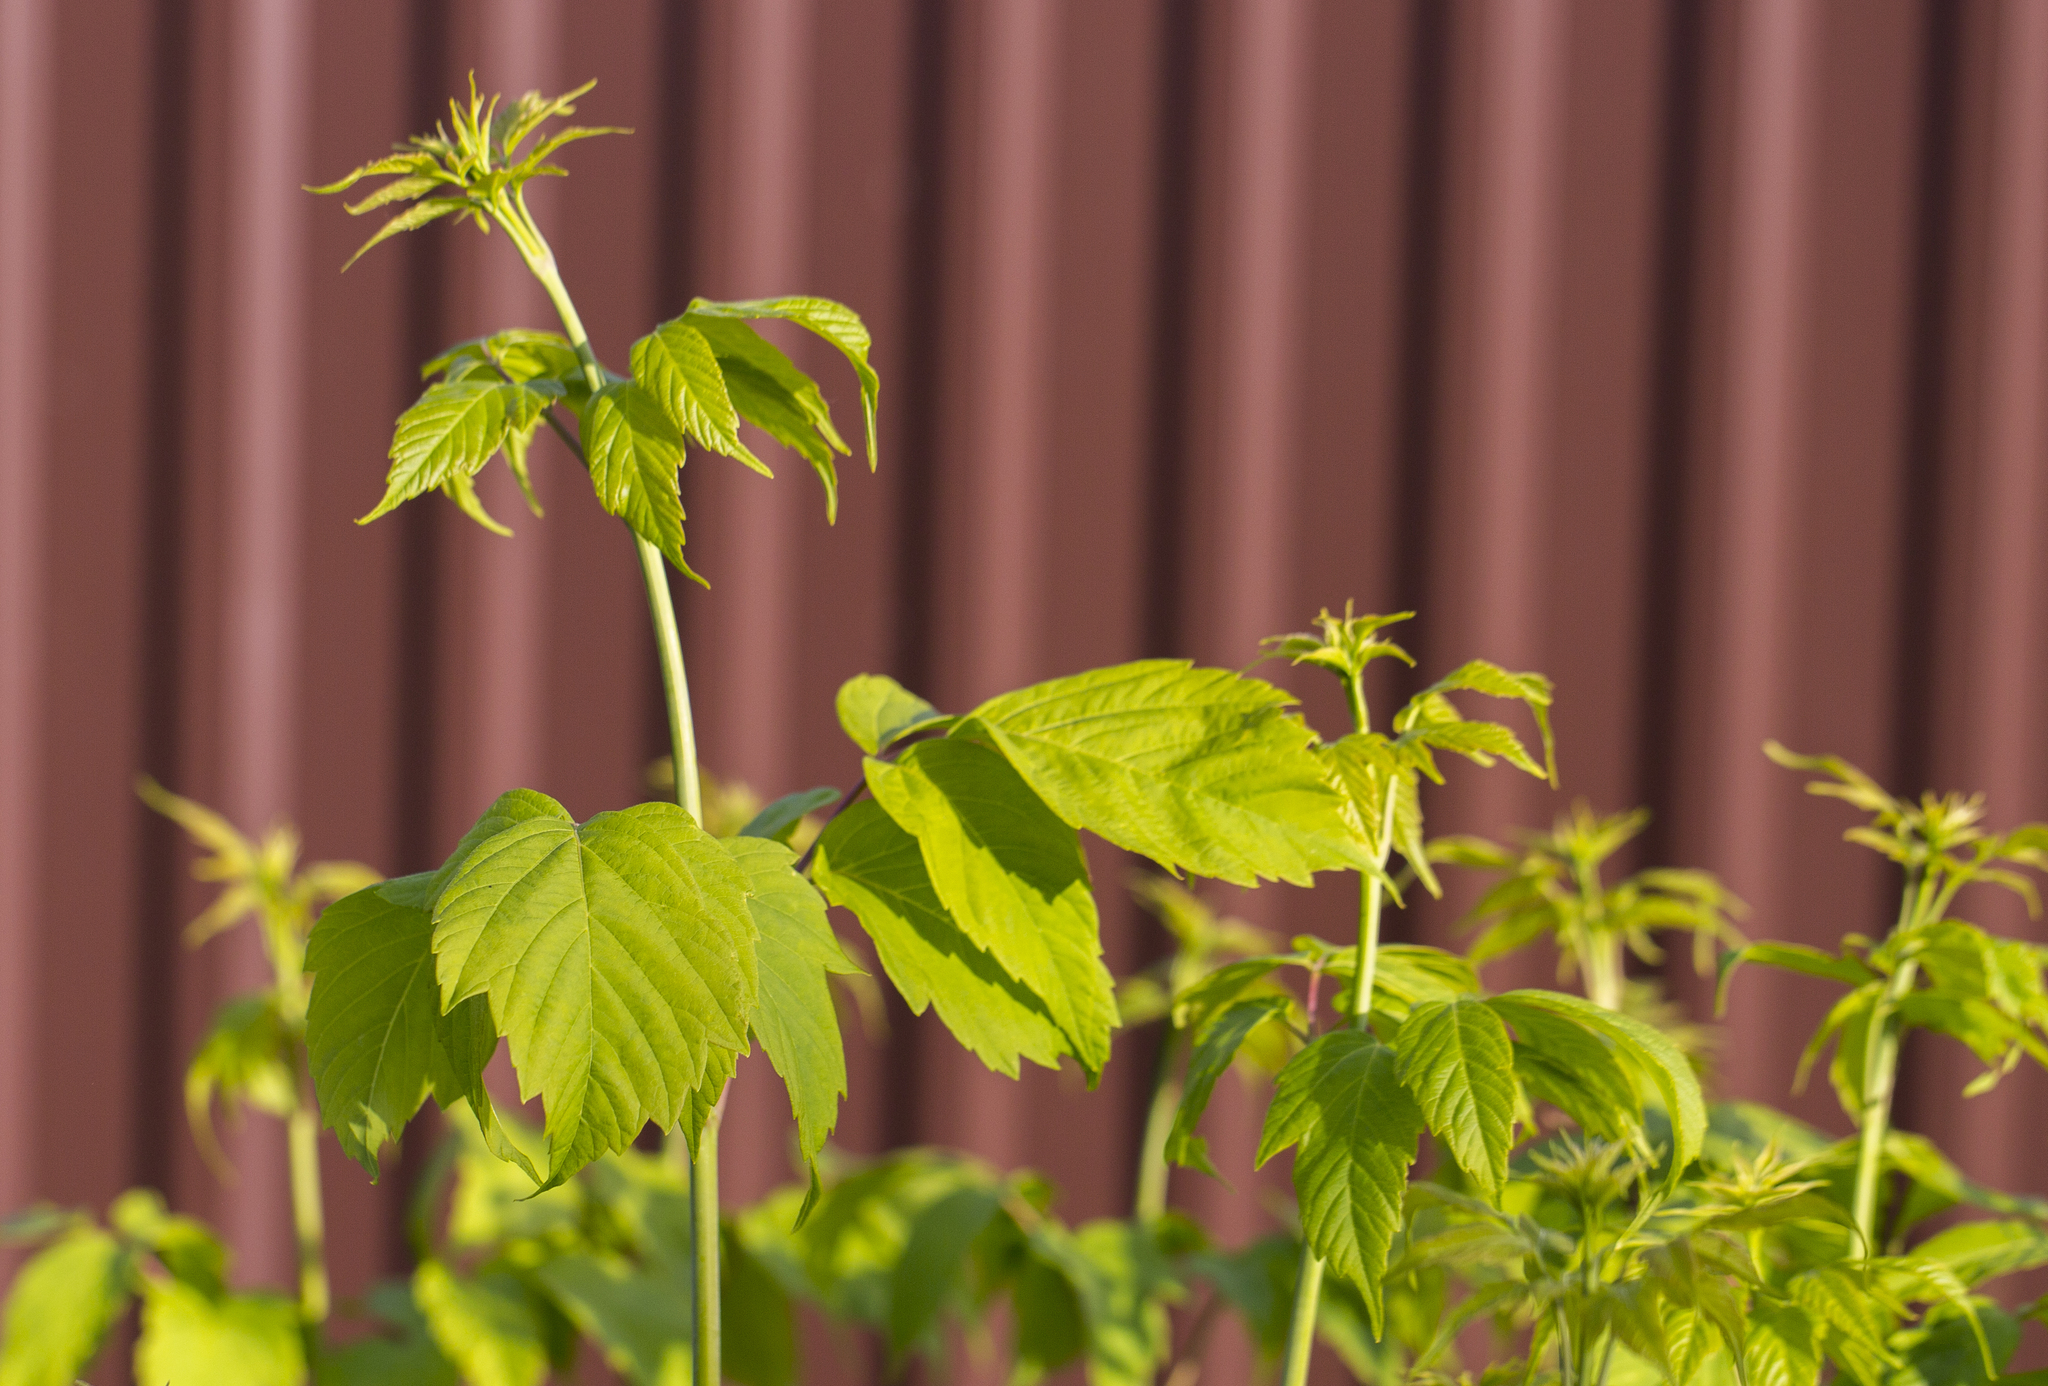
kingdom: Plantae
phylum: Tracheophyta
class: Magnoliopsida
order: Sapindales
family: Sapindaceae
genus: Acer
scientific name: Acer negundo
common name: Ashleaf maple
